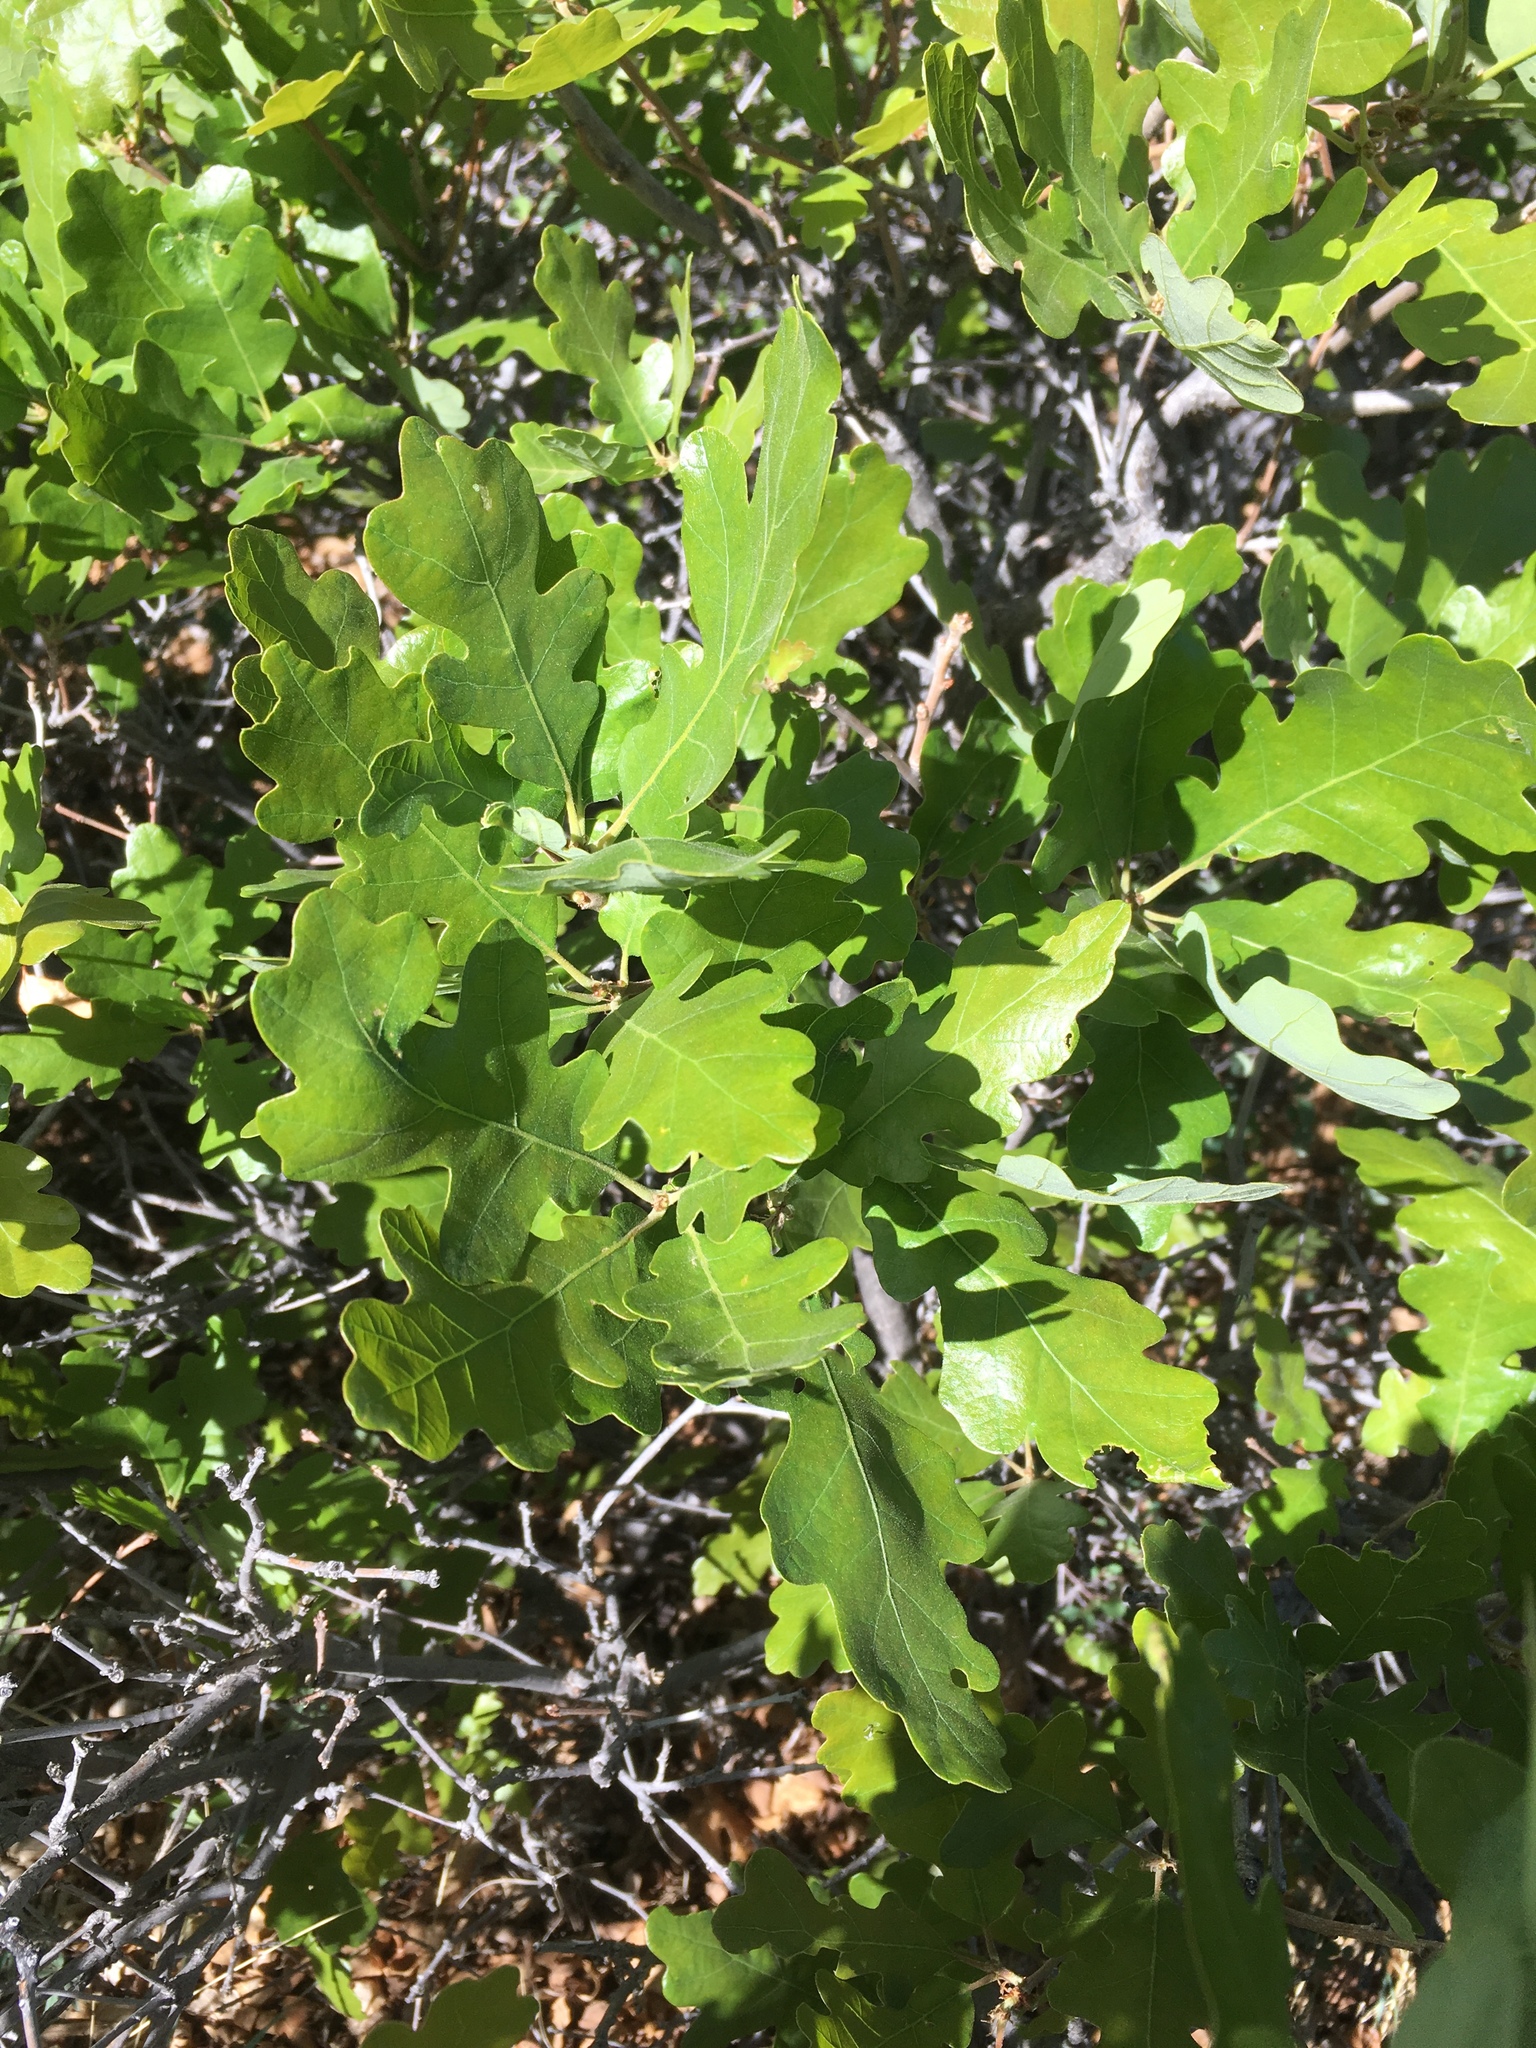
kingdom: Plantae
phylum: Tracheophyta
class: Magnoliopsida
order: Fagales
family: Fagaceae
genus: Quercus
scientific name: Quercus gambelii
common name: Gambel oak
